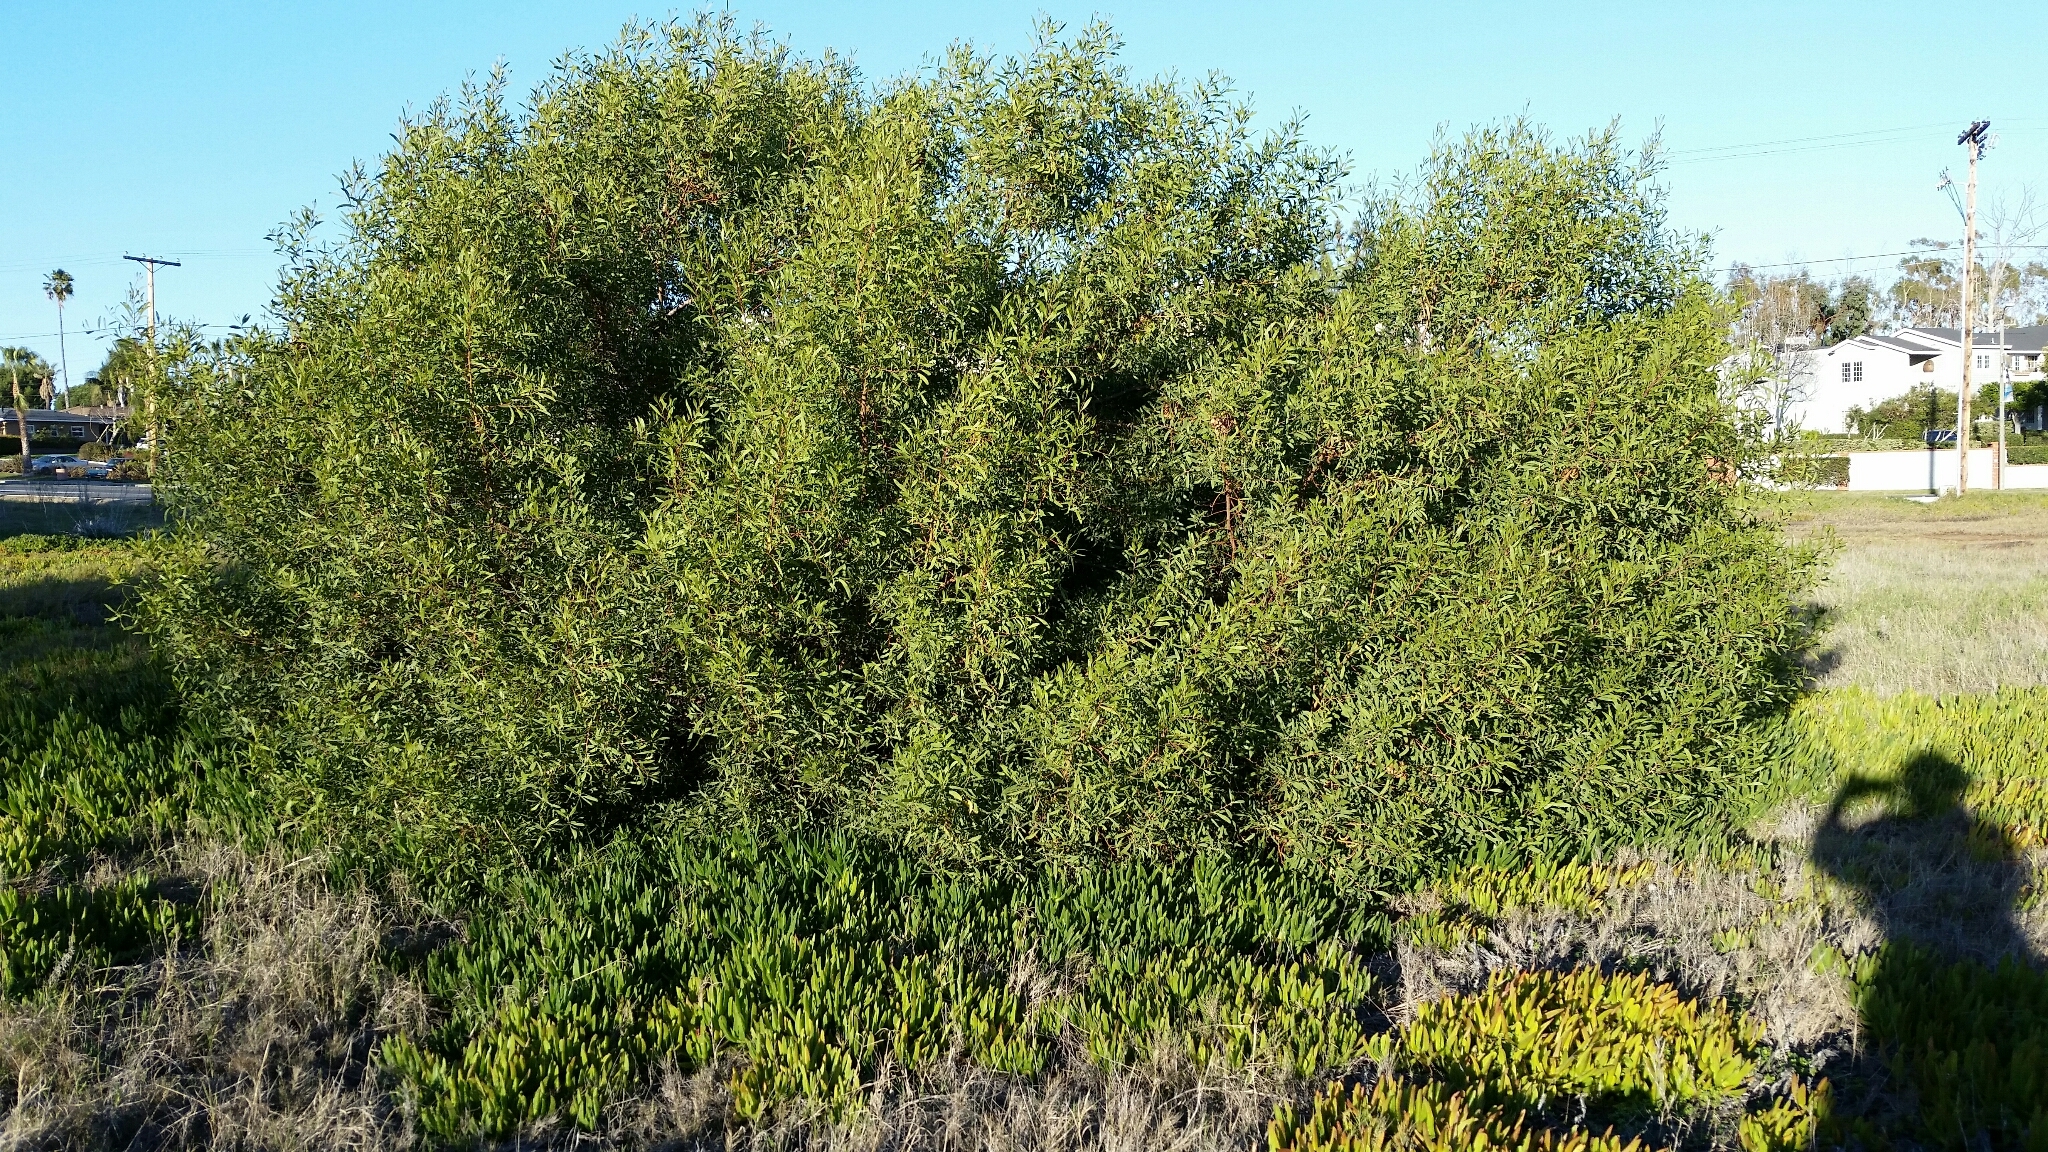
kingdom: Plantae
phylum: Tracheophyta
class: Magnoliopsida
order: Fabales
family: Fabaceae
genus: Acacia
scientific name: Acacia cyclops
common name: Coastal wattle
